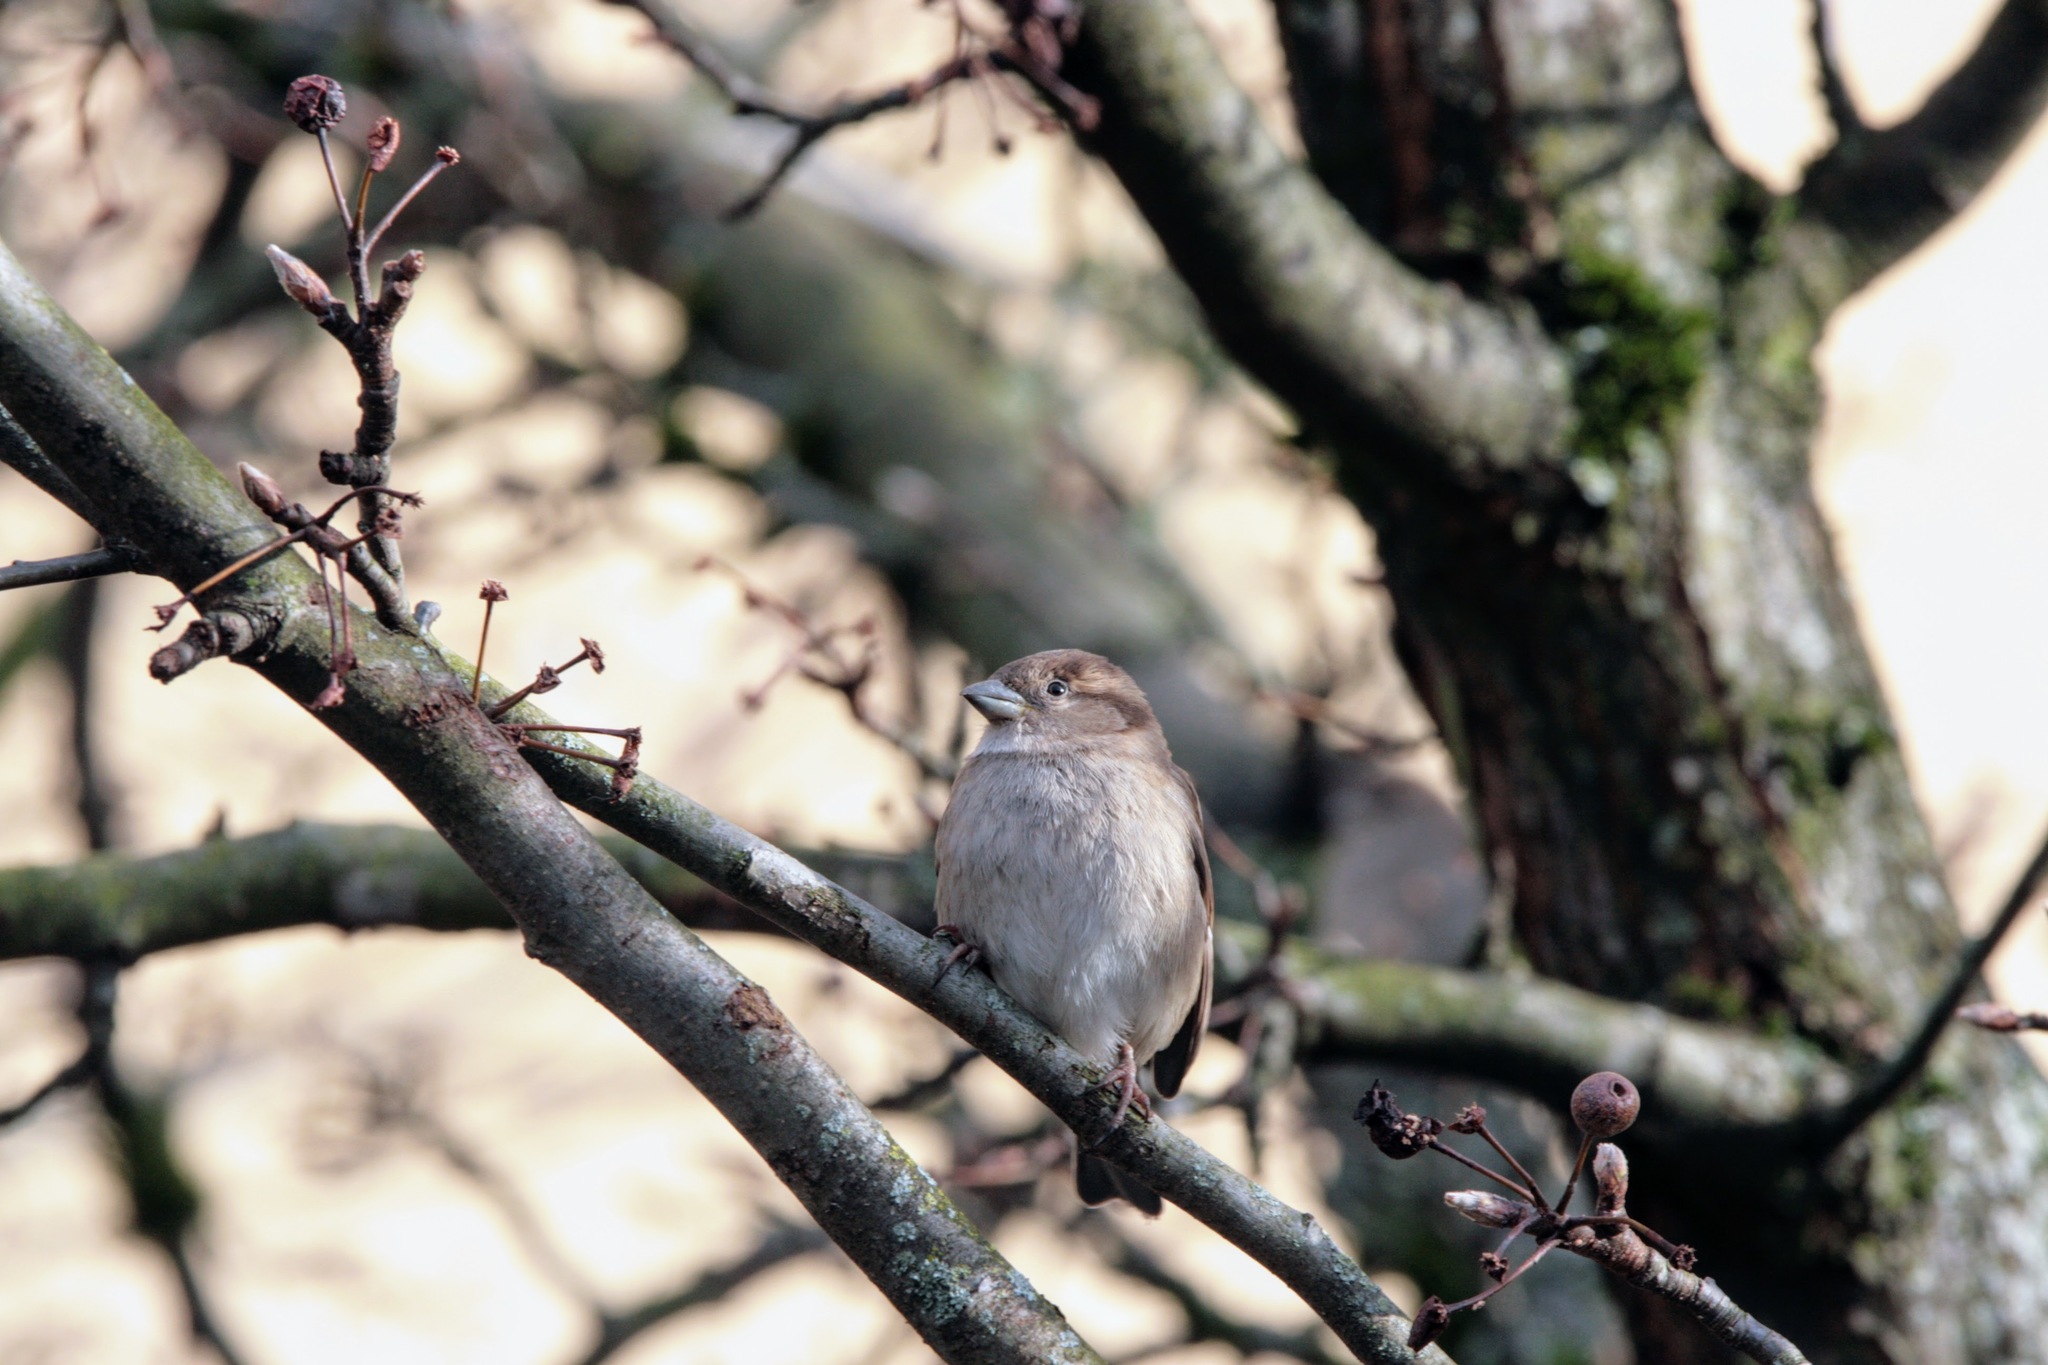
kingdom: Animalia
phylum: Chordata
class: Aves
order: Passeriformes
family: Passeridae
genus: Passer
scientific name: Passer domesticus
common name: House sparrow
